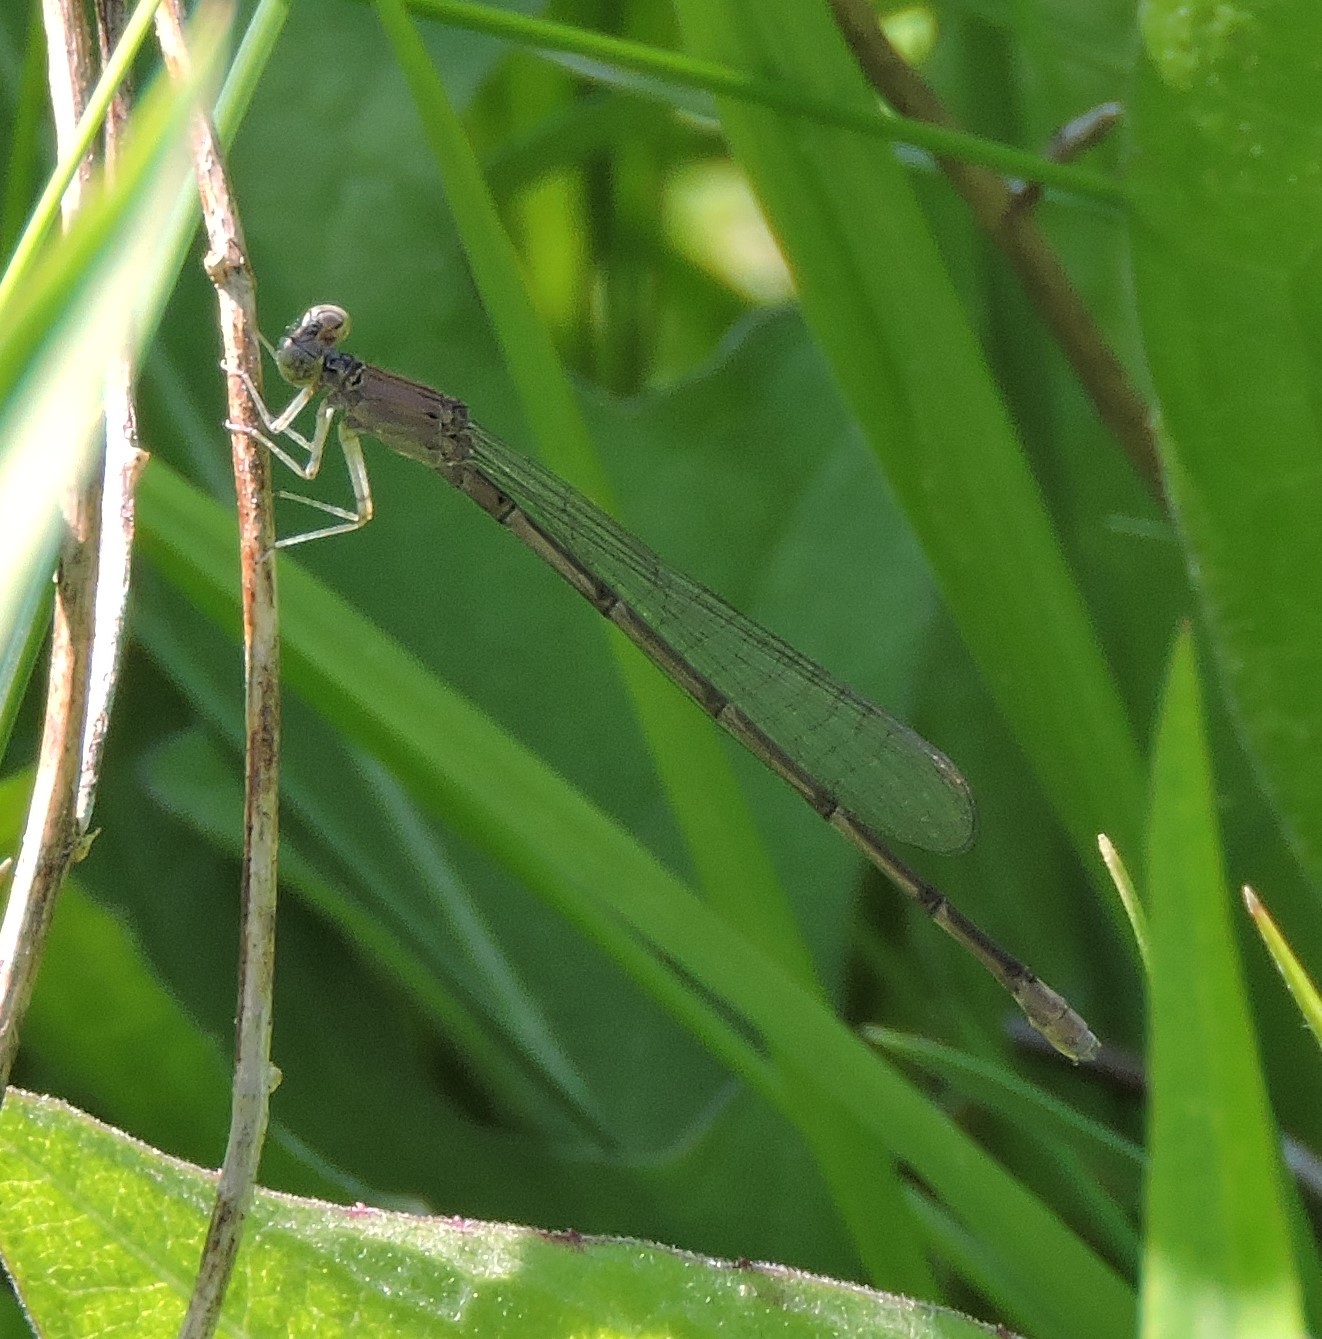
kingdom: Animalia
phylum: Arthropoda
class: Insecta
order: Odonata
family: Coenagrionidae
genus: Enallagma
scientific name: Enallagma traviatum
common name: Slender bluet
